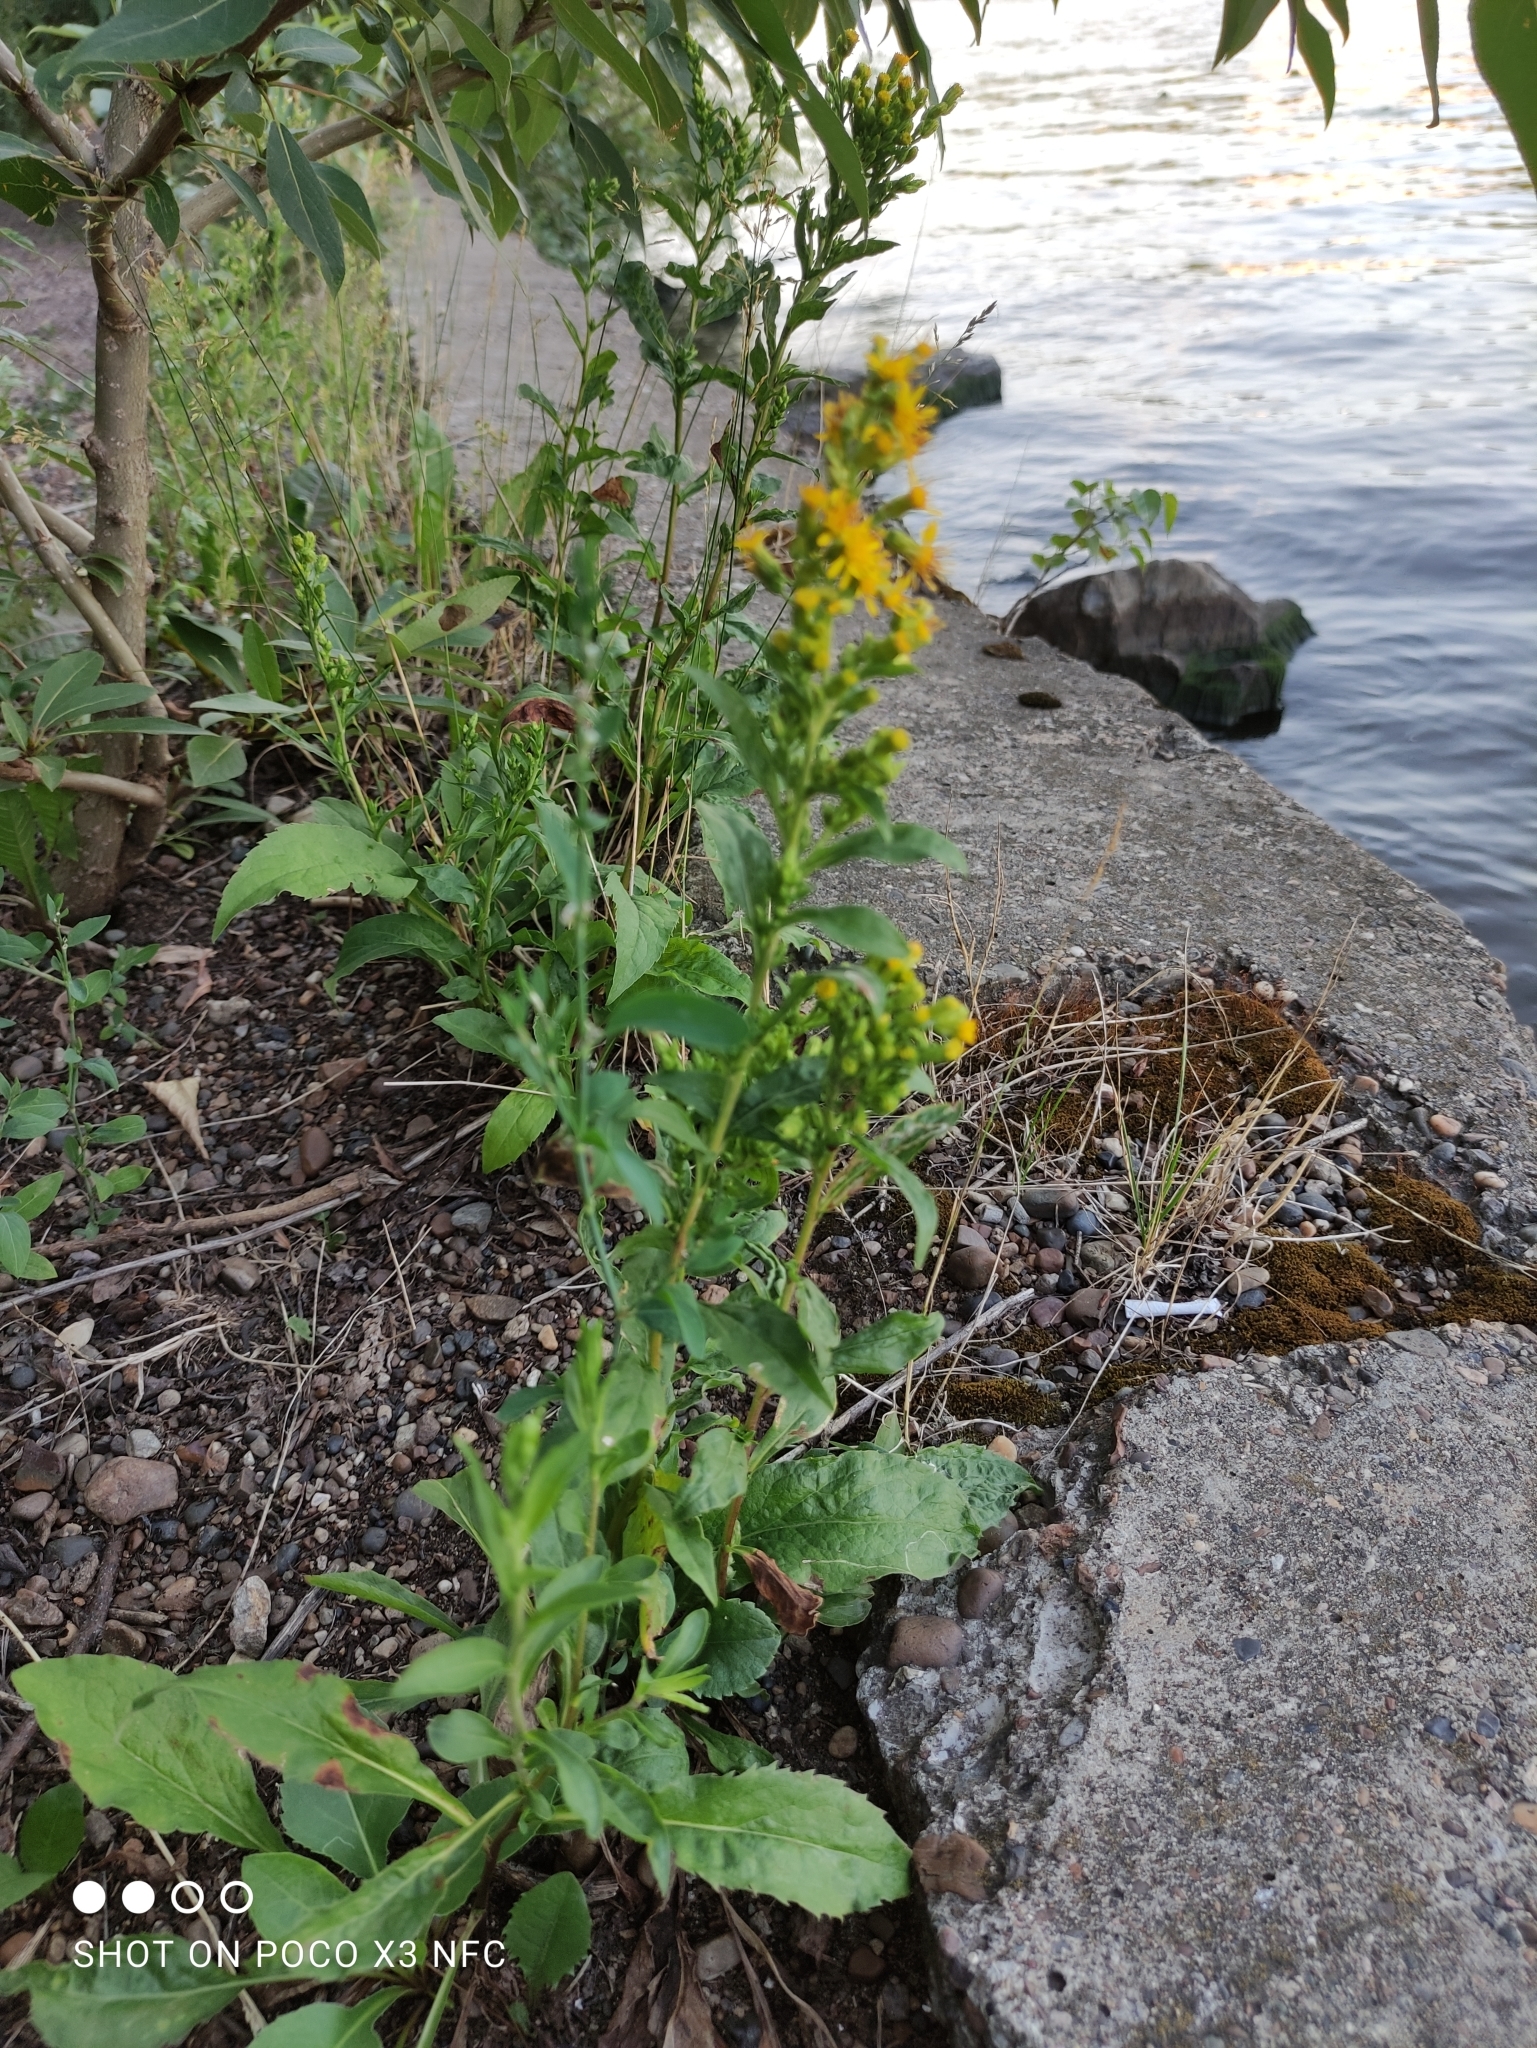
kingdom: Plantae
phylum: Tracheophyta
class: Magnoliopsida
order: Asterales
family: Asteraceae
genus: Solidago
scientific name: Solidago virgaurea
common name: Goldenrod
